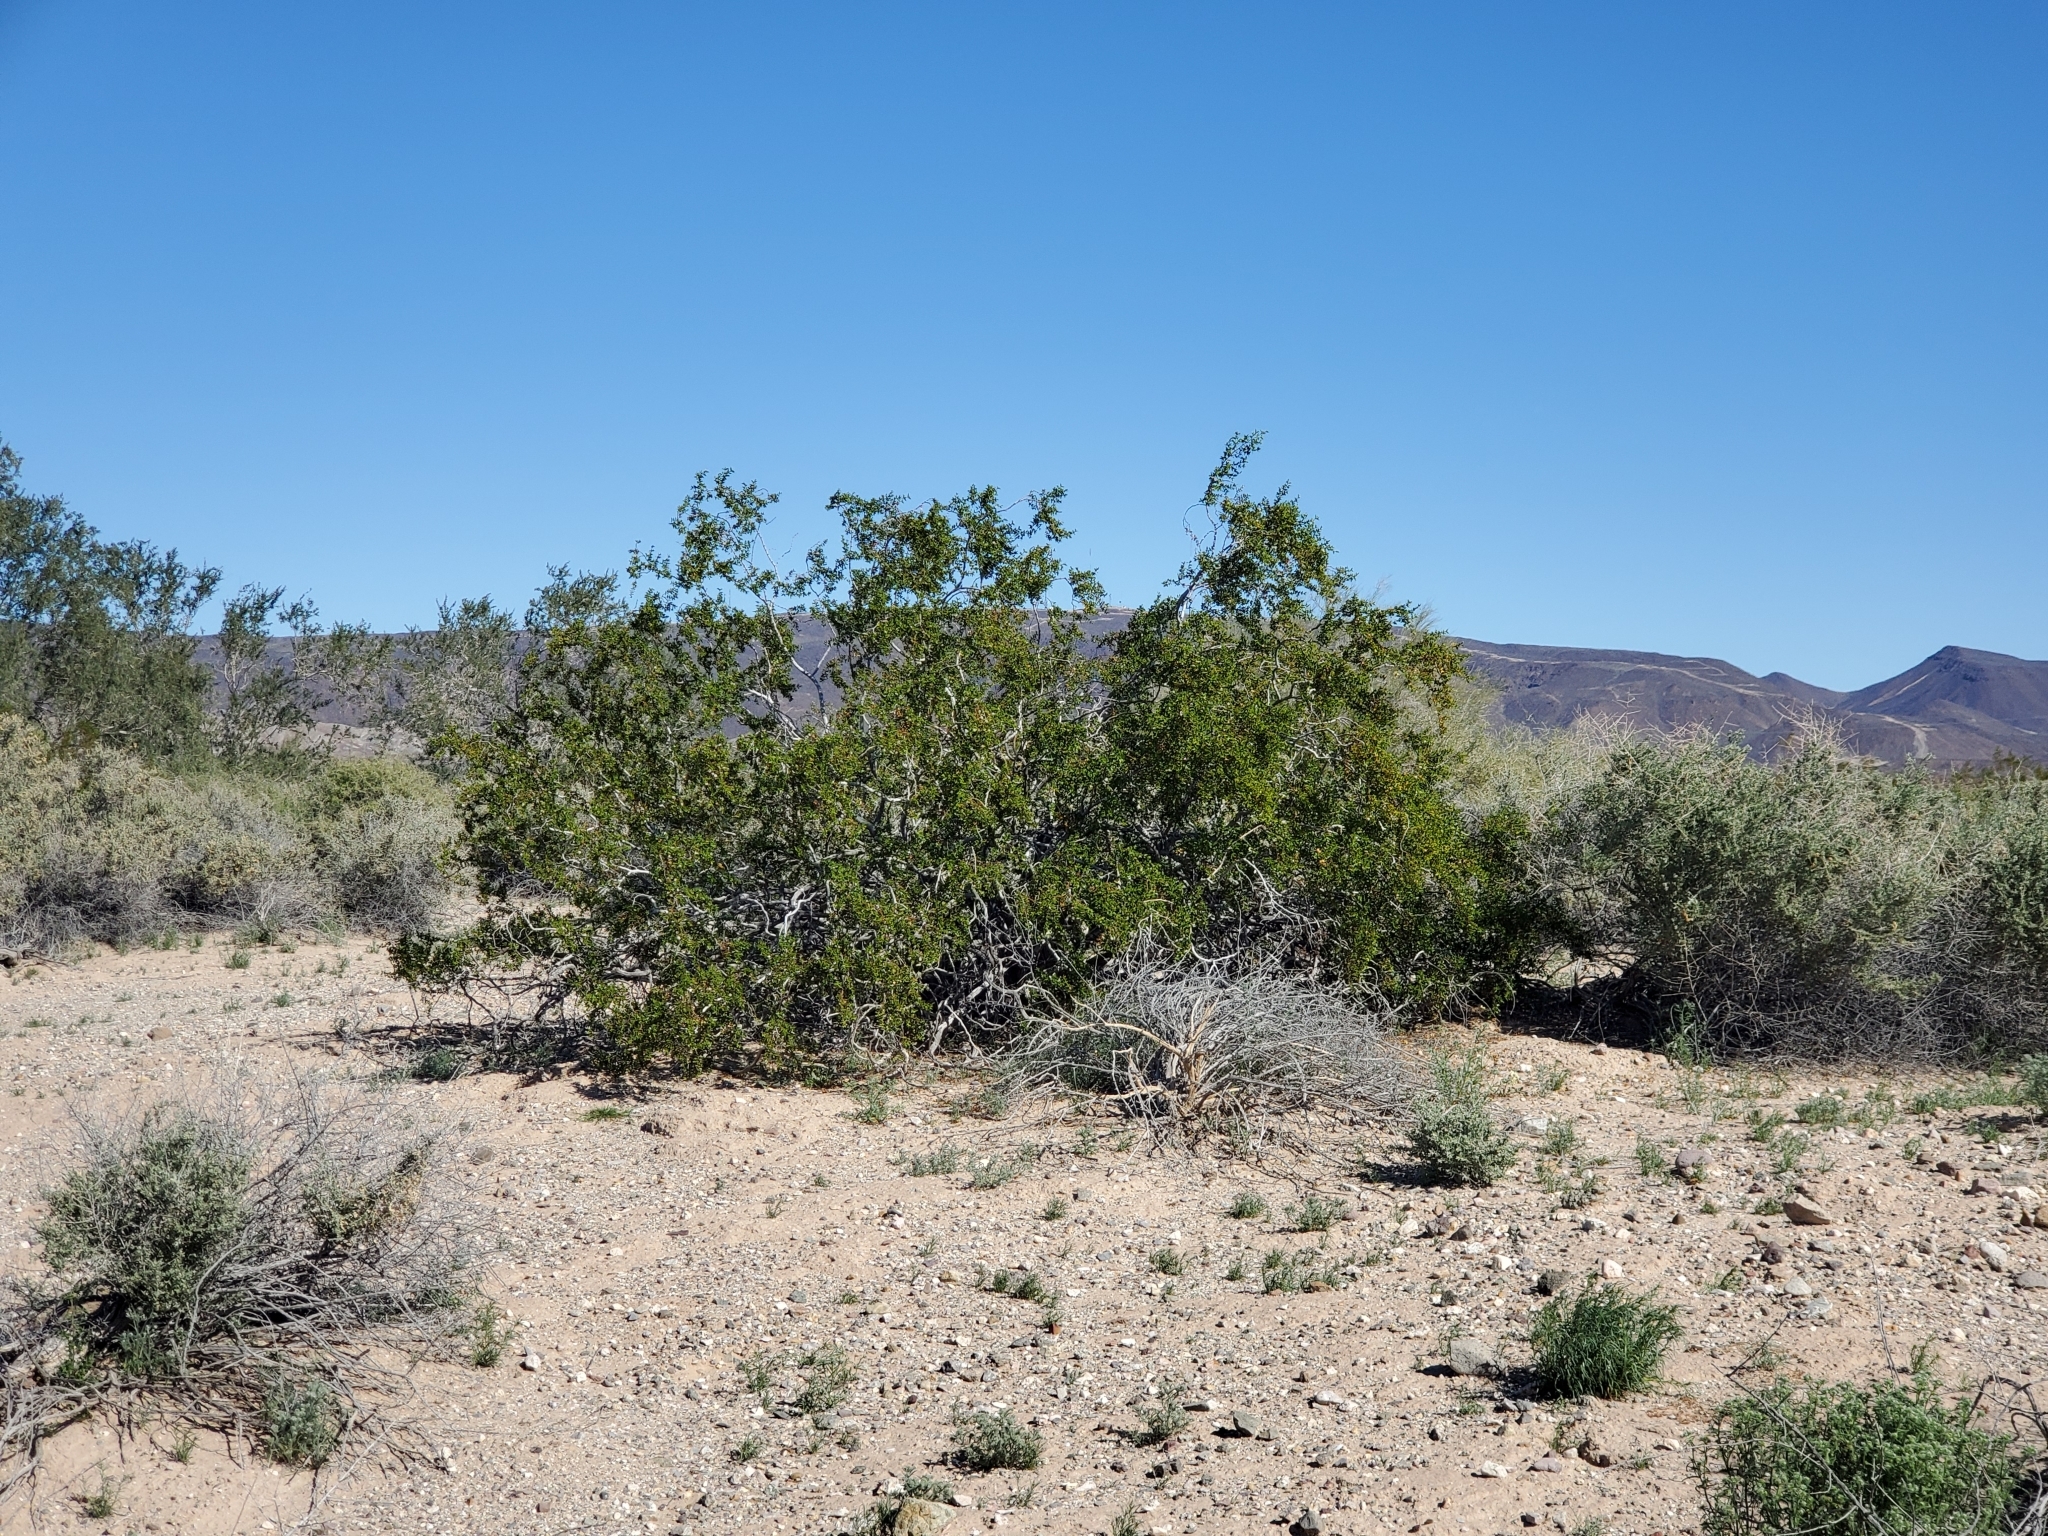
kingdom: Plantae
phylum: Tracheophyta
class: Magnoliopsida
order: Zygophyllales
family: Zygophyllaceae
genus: Larrea
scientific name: Larrea tridentata
